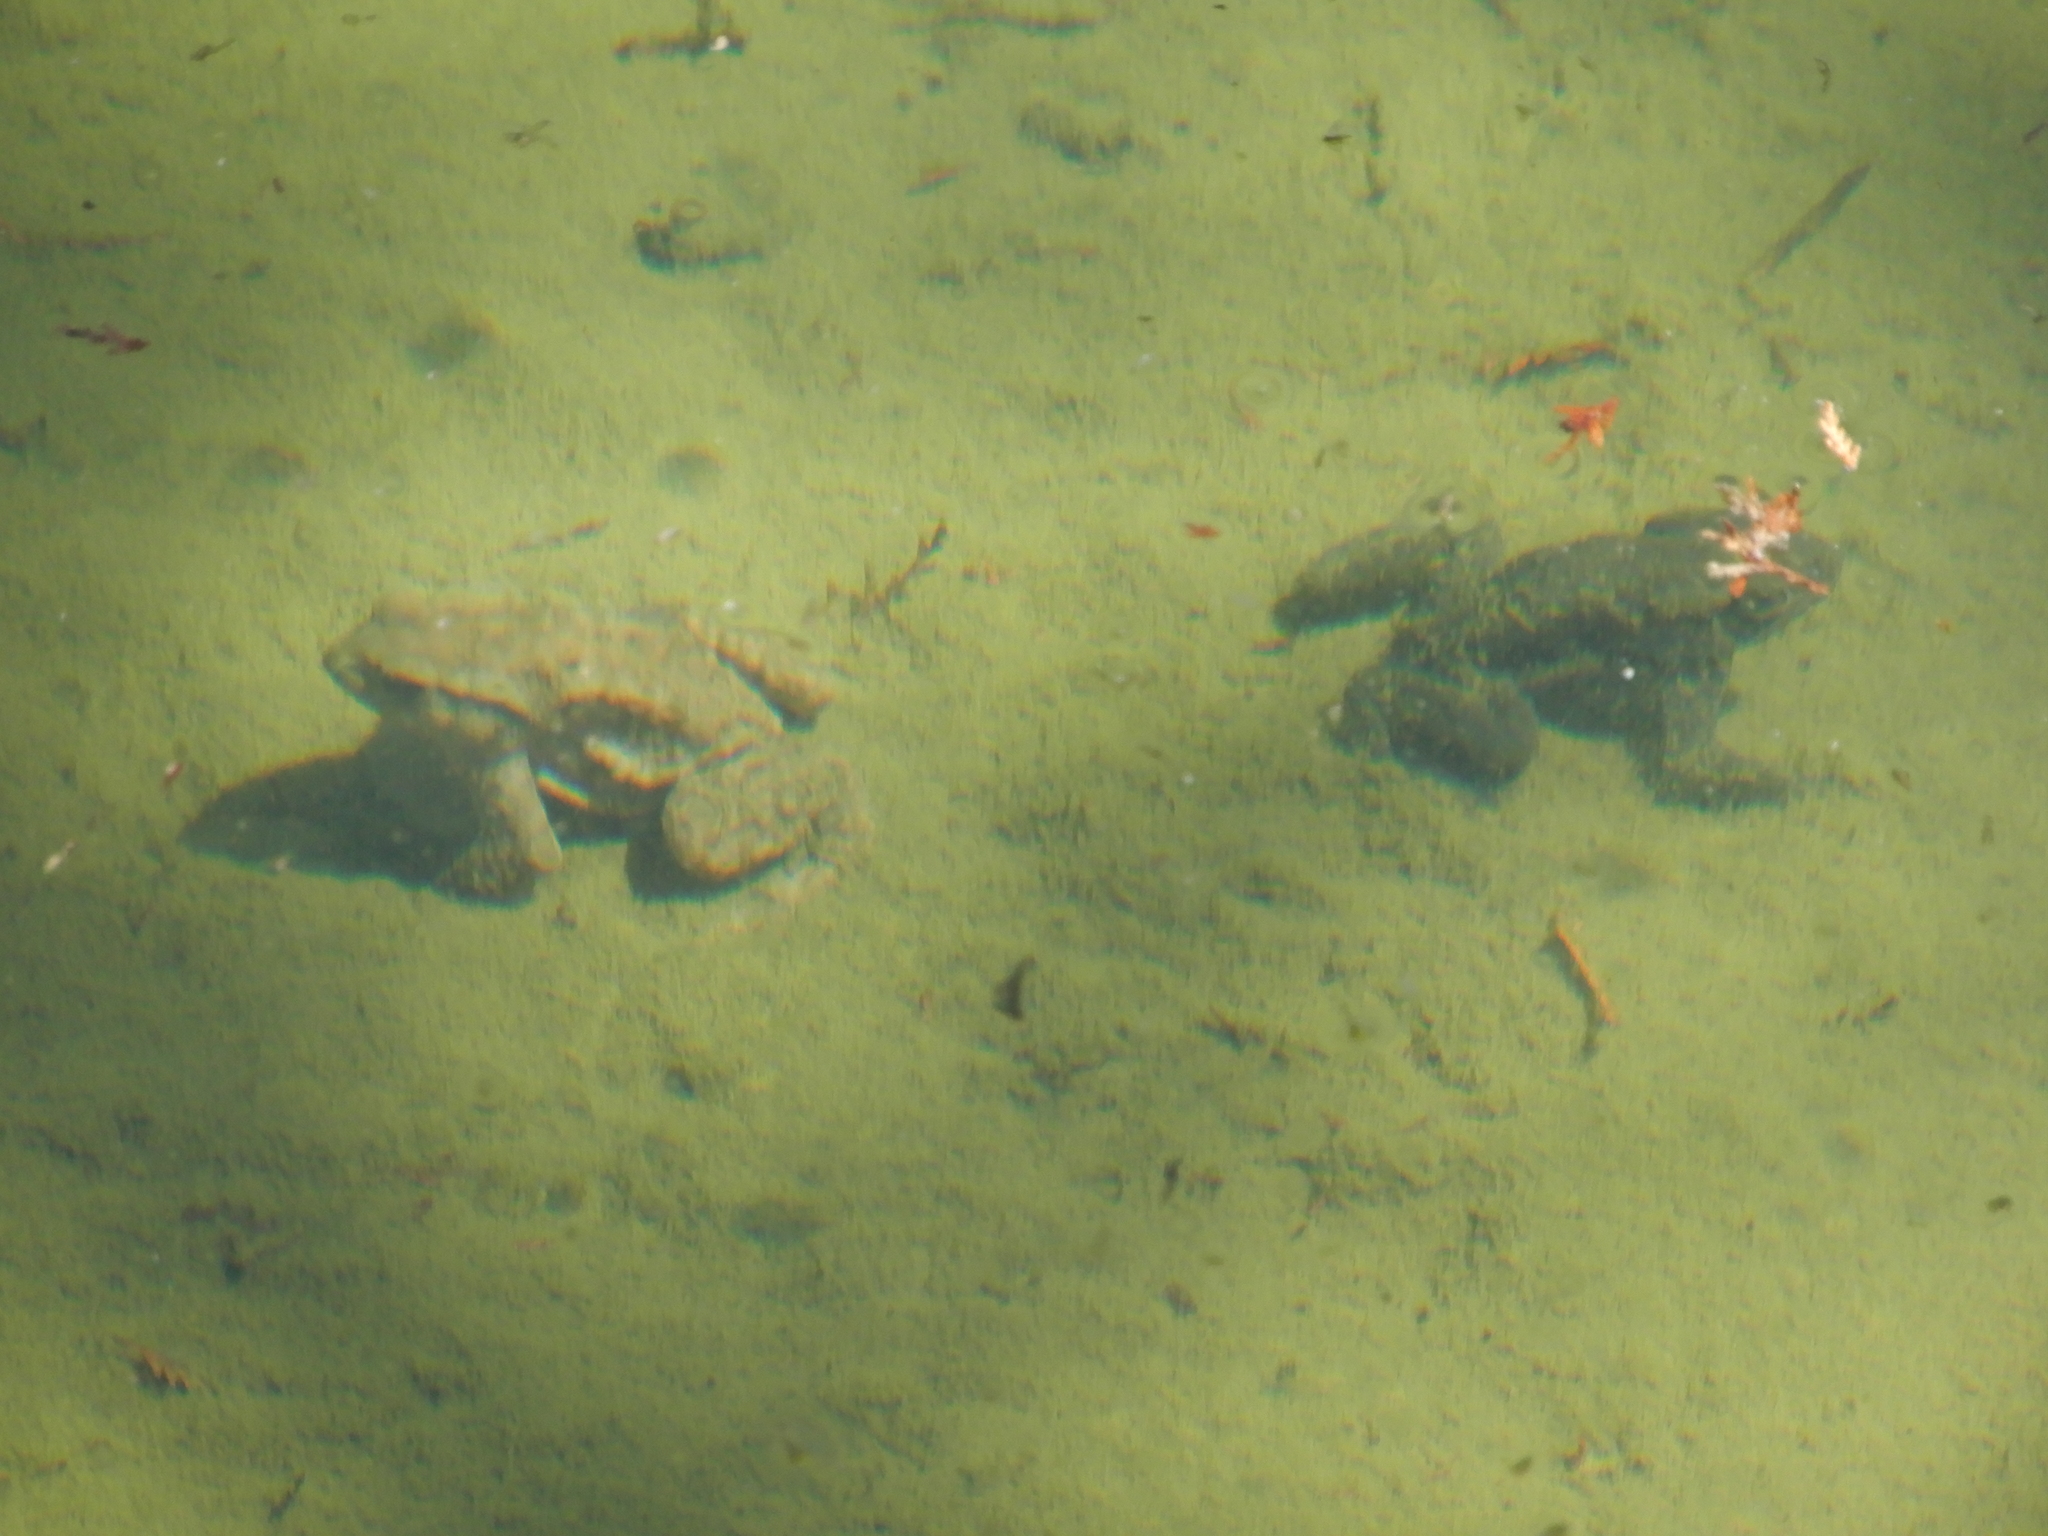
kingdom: Animalia
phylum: Chordata
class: Amphibia
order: Anura
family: Bufonidae
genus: Bufo
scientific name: Bufo bankorensis
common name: Bankor toad
